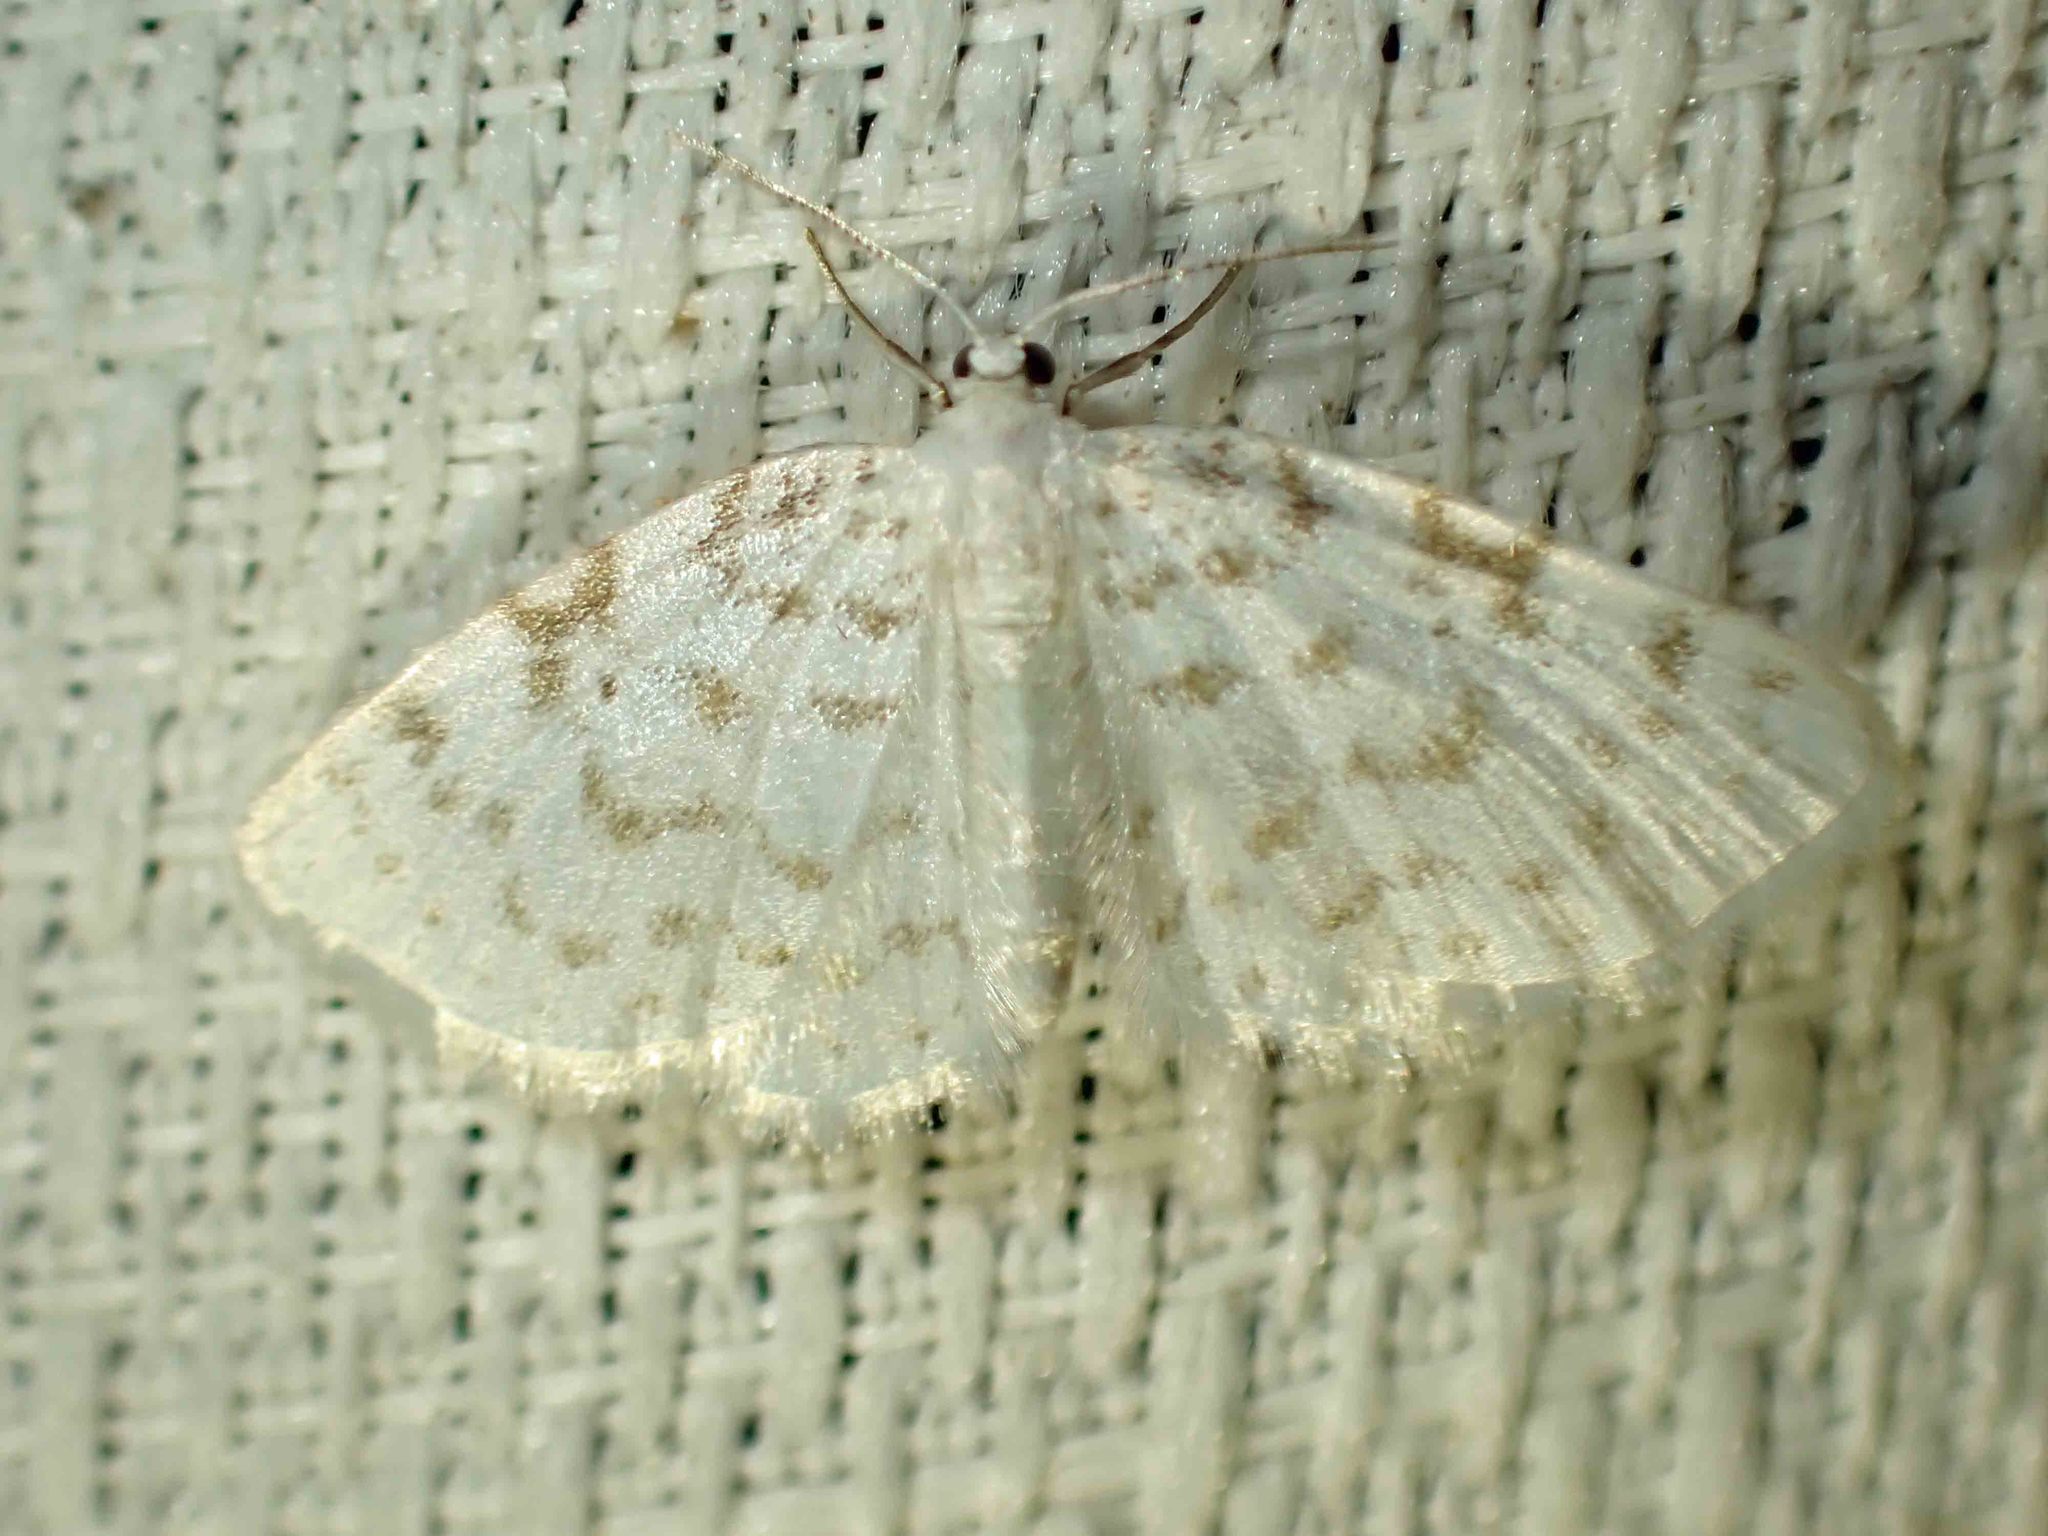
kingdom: Animalia
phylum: Arthropoda
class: Insecta
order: Lepidoptera
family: Geometridae
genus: Hydrelia
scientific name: Hydrelia albifera
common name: Fragile white carpet
